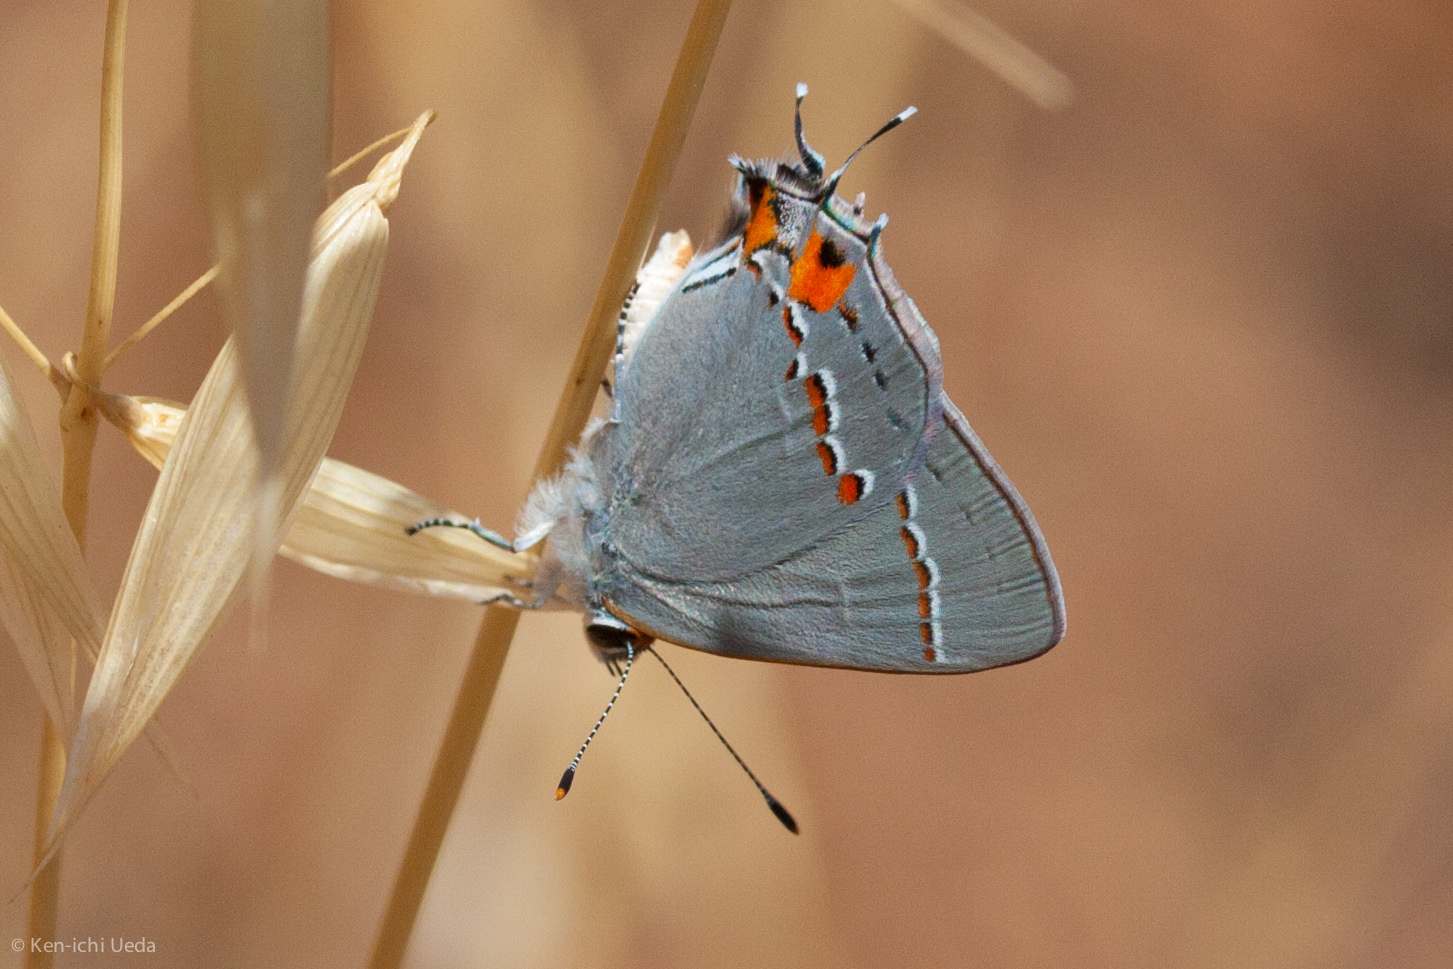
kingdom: Animalia
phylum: Arthropoda
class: Insecta
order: Lepidoptera
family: Lycaenidae
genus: Strymon
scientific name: Strymon melinus
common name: Gray hairstreak
